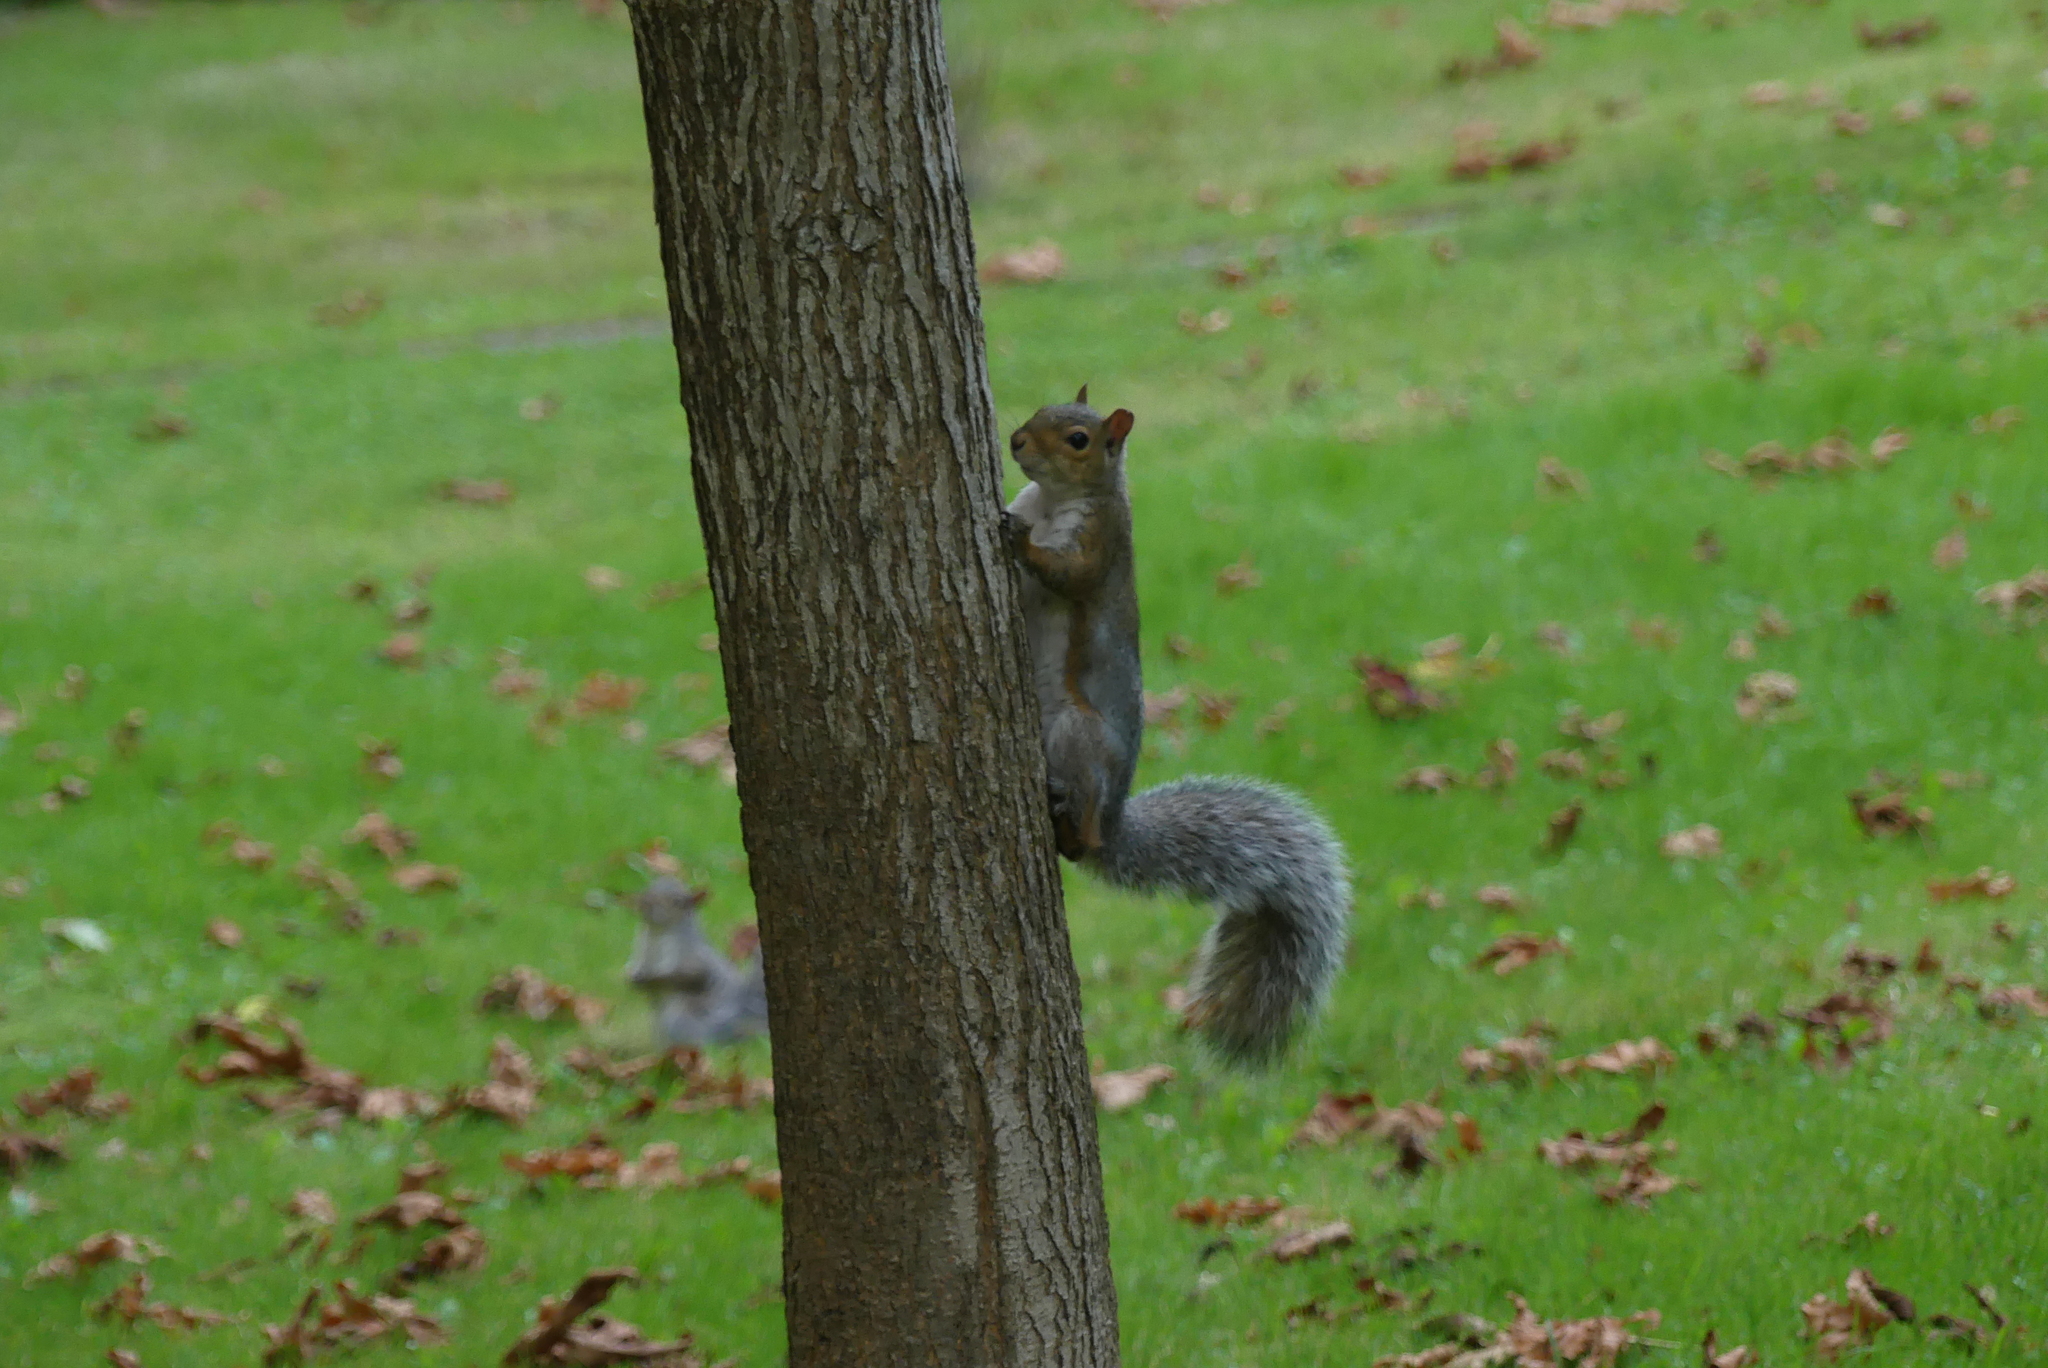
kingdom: Animalia
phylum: Chordata
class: Mammalia
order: Rodentia
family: Sciuridae
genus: Sciurus
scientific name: Sciurus carolinensis
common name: Eastern gray squirrel
